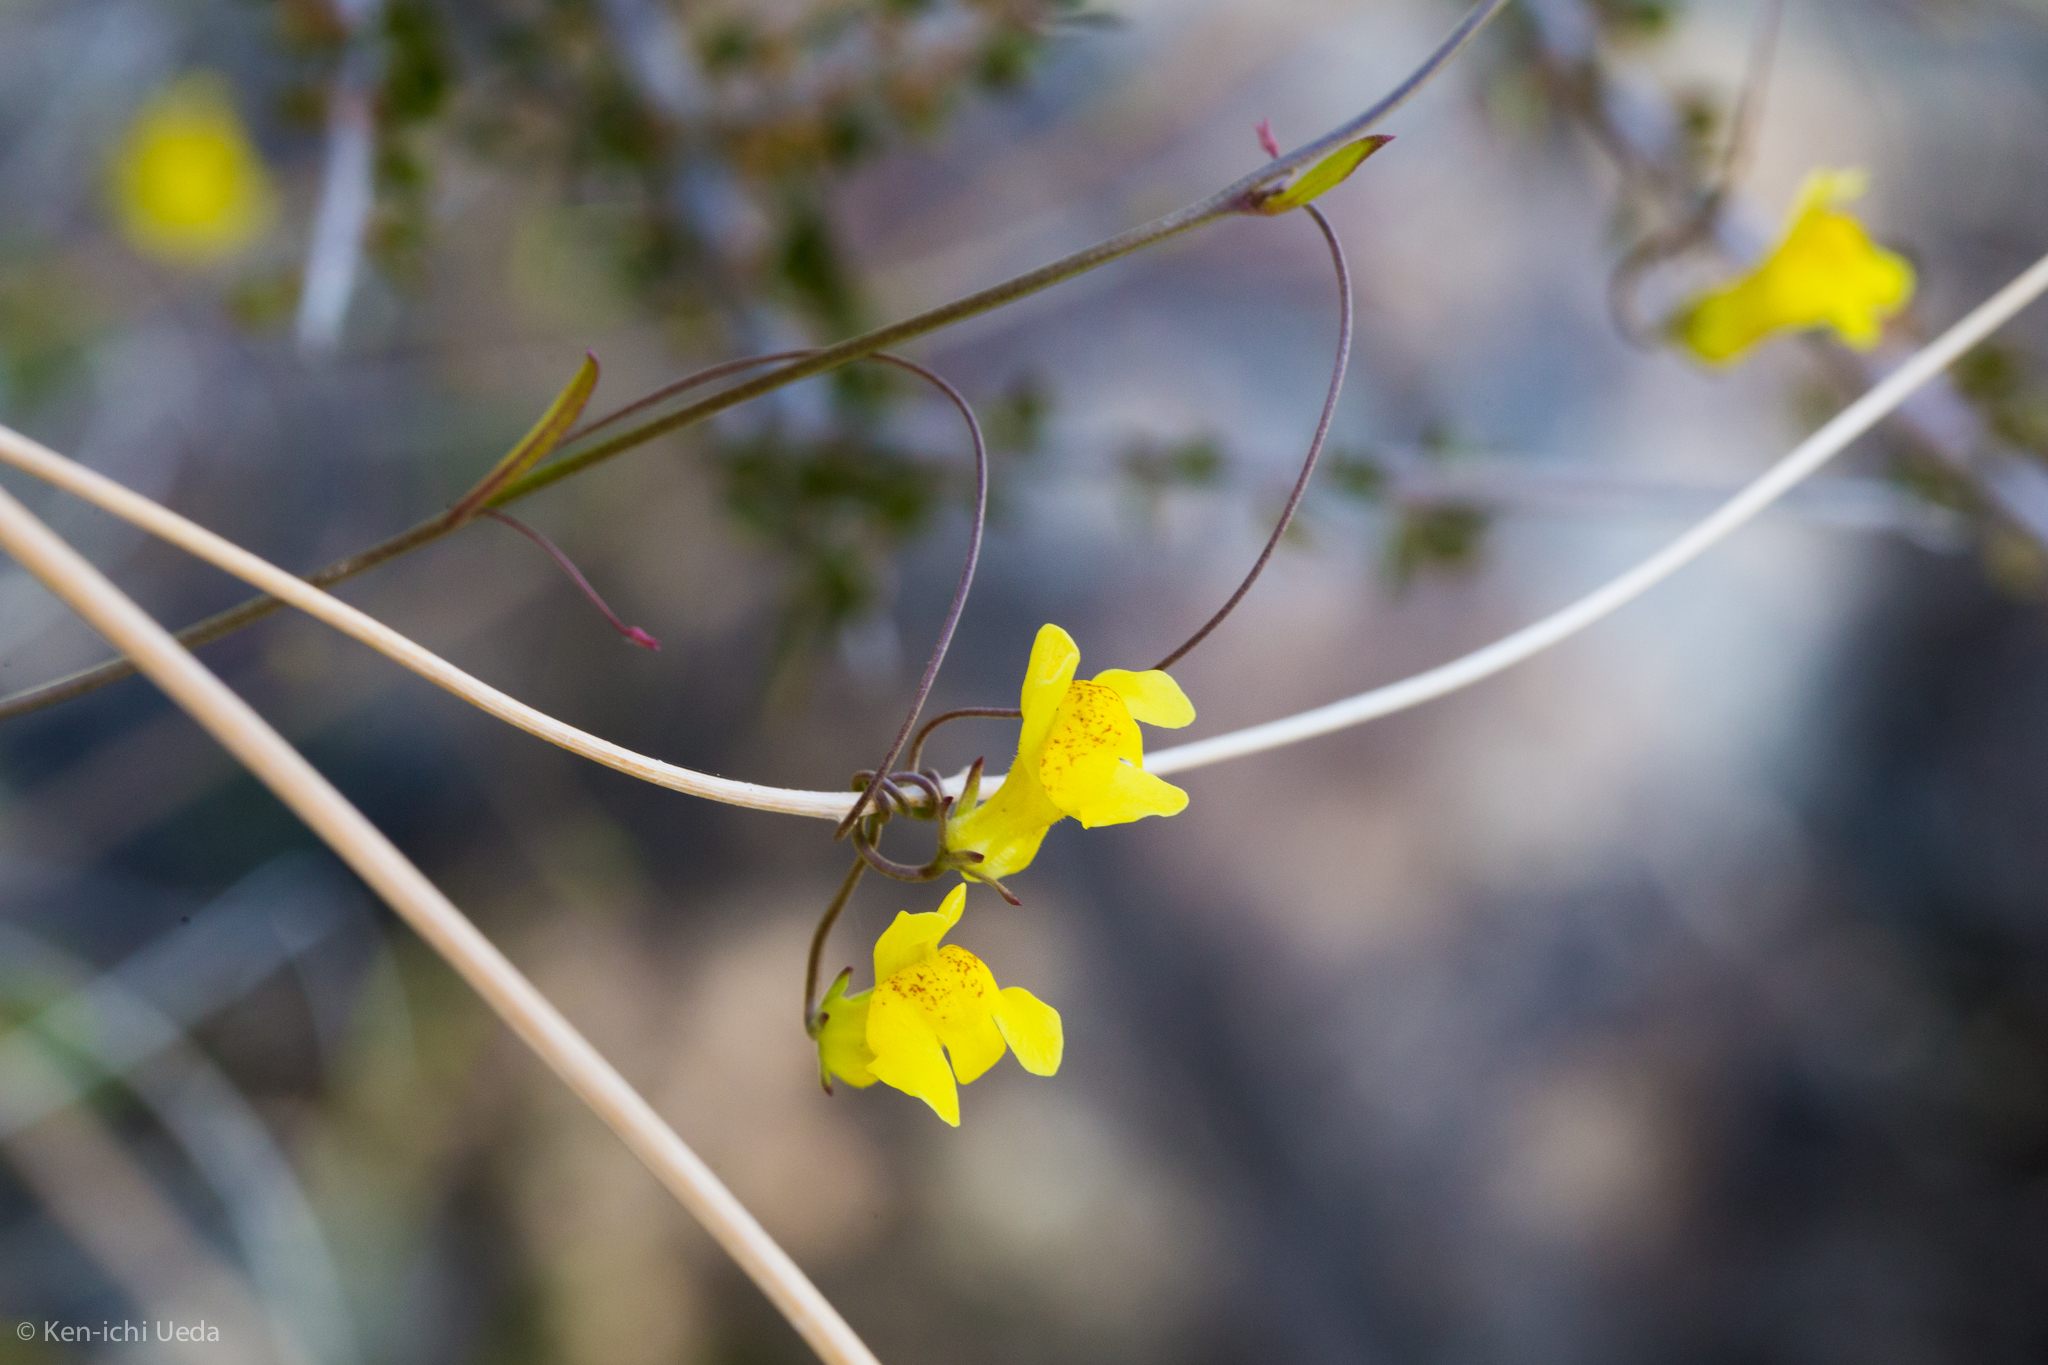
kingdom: Plantae
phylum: Tracheophyta
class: Magnoliopsida
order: Lamiales
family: Plantaginaceae
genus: Neogaerrhinum
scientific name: Neogaerrhinum filipes
